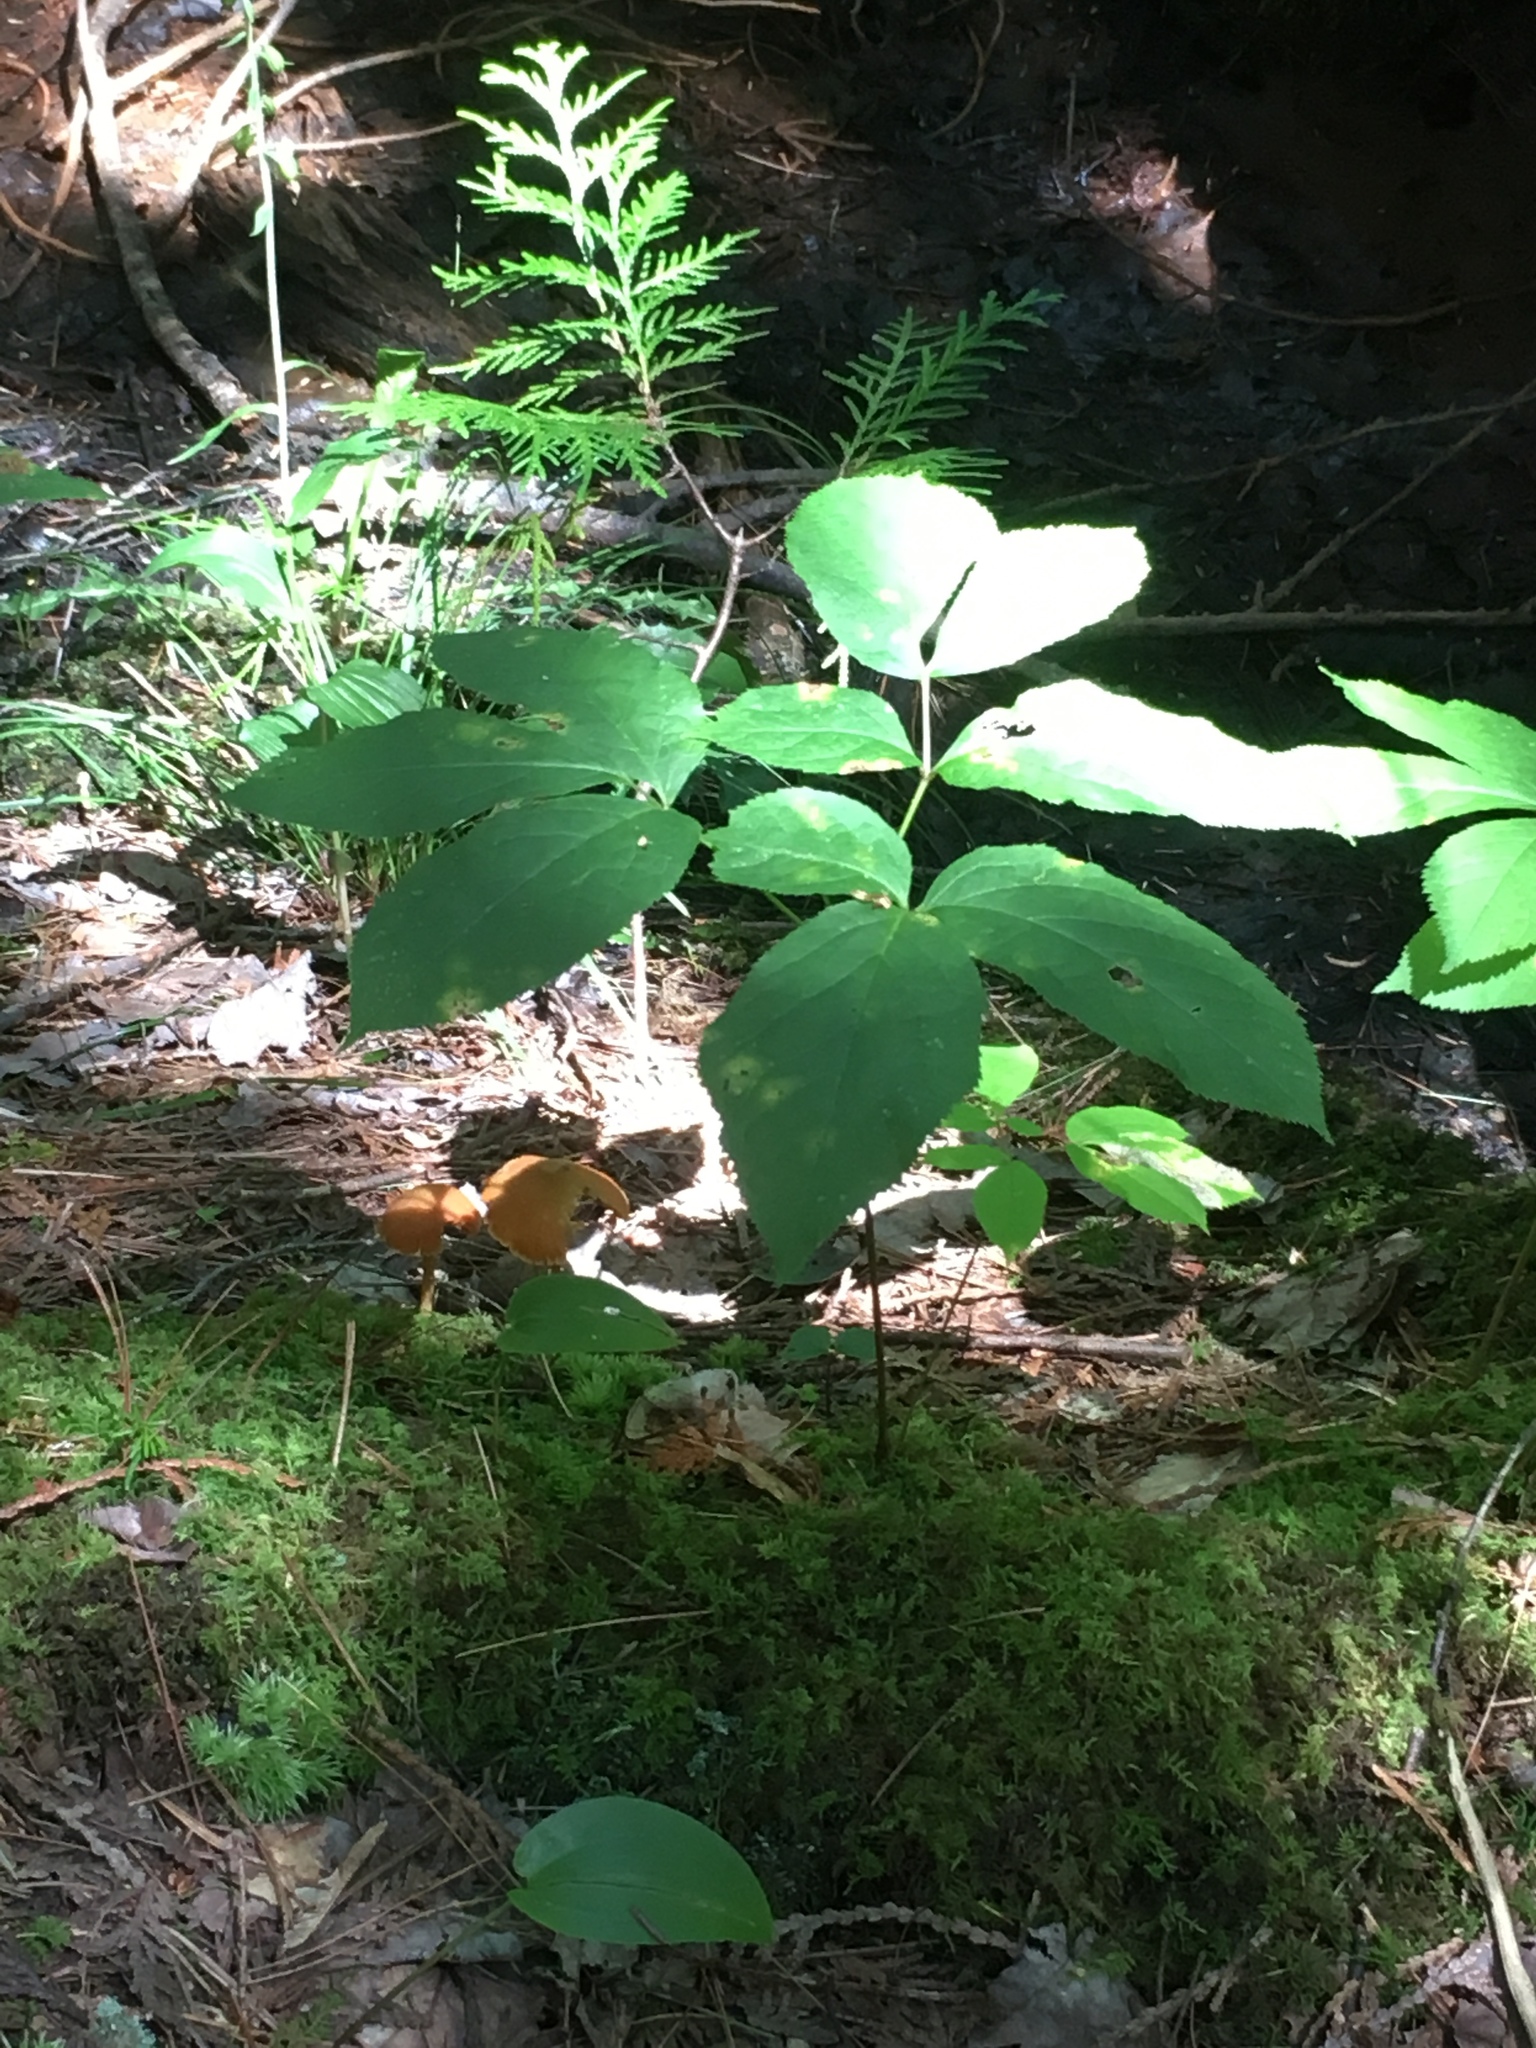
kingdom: Plantae
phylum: Tracheophyta
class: Magnoliopsida
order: Apiales
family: Araliaceae
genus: Aralia
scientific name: Aralia nudicaulis
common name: Wild sarsaparilla
